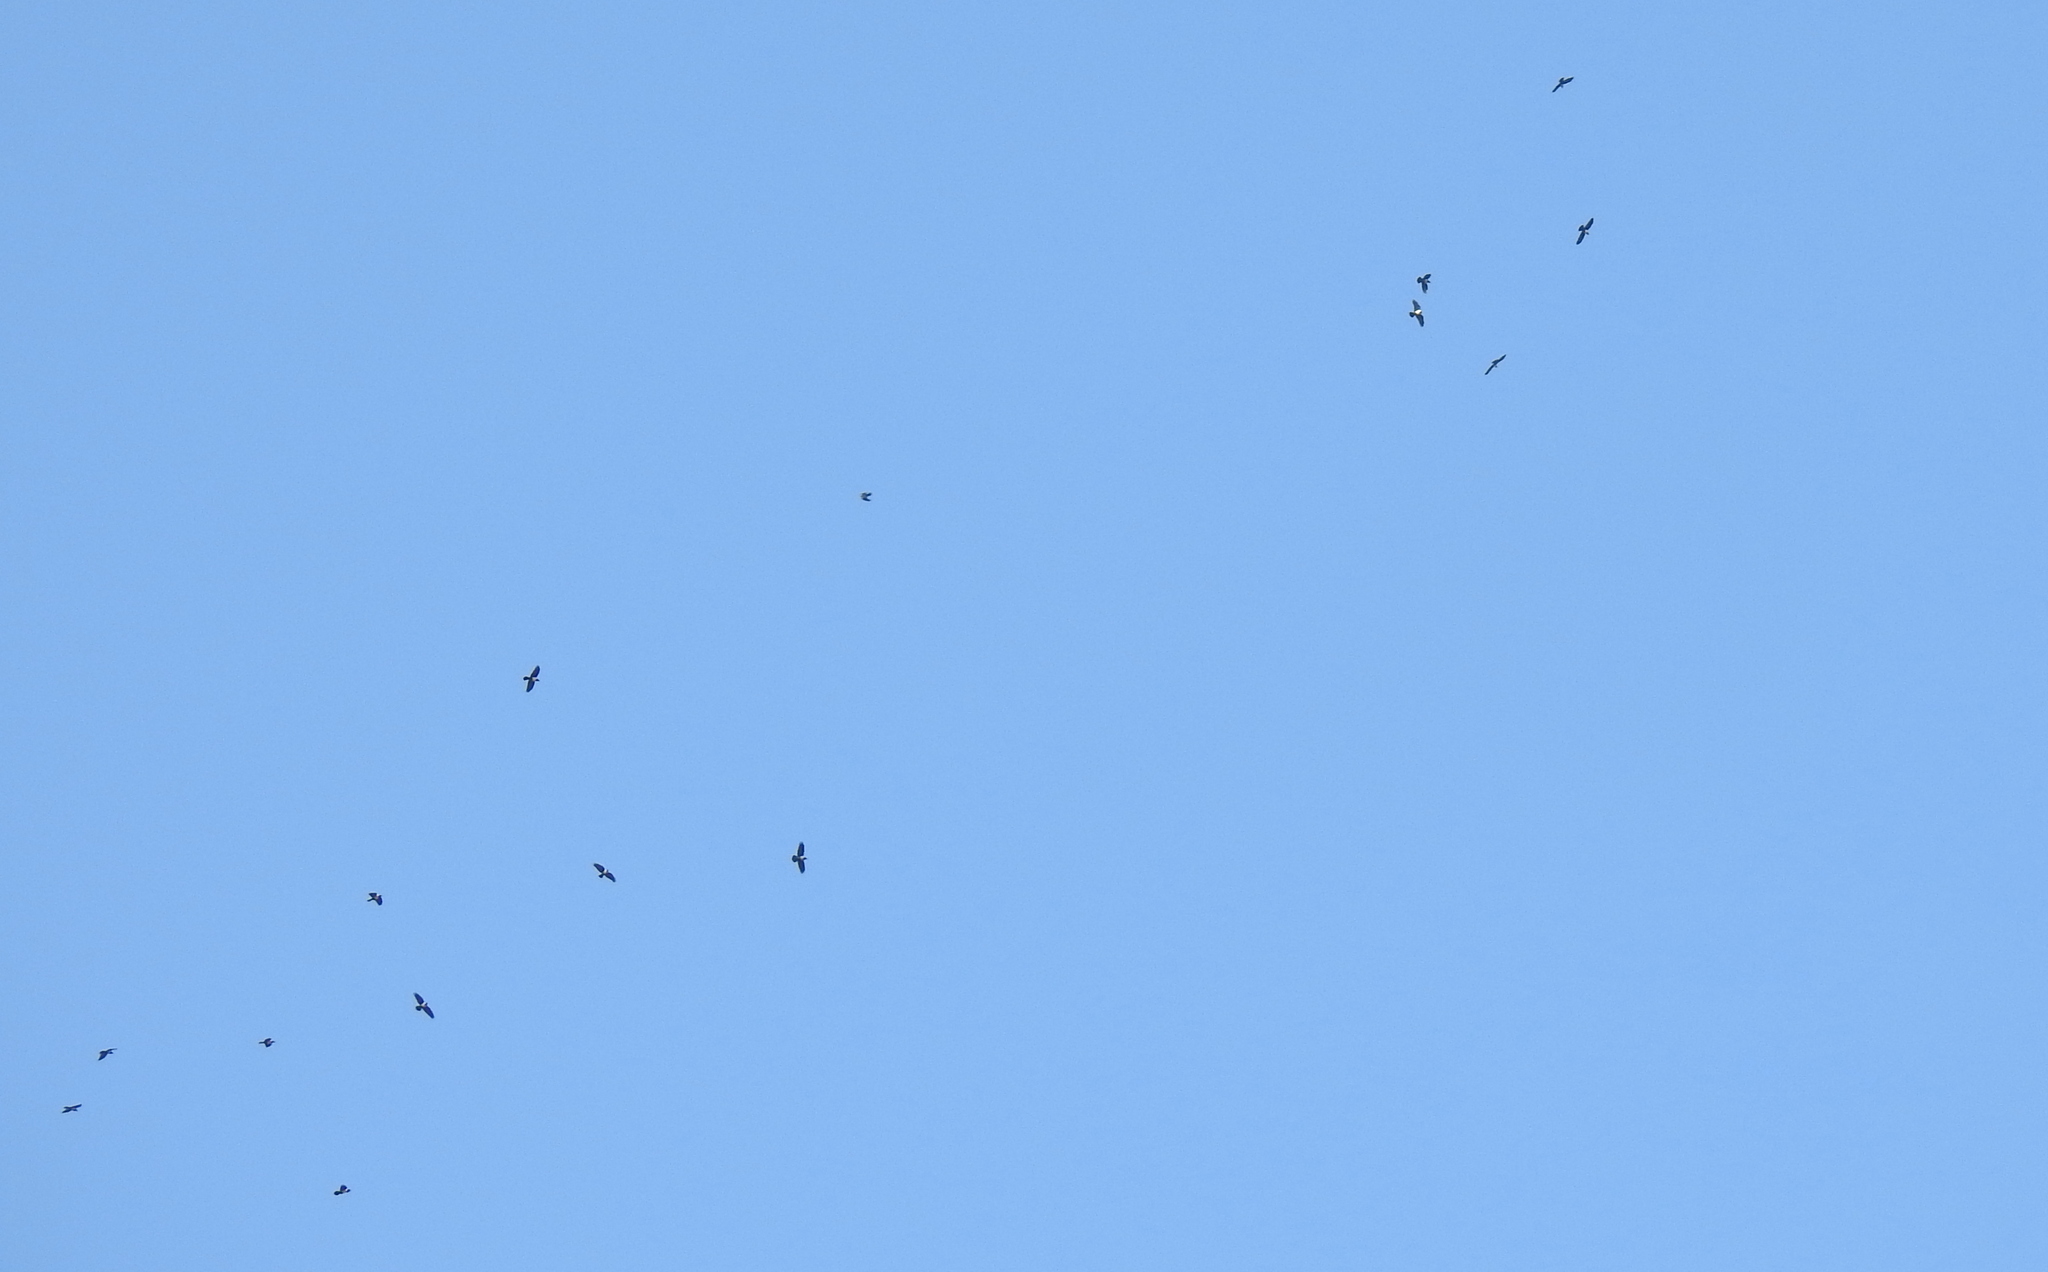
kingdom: Animalia
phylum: Chordata
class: Aves
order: Passeriformes
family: Corvidae
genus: Corvus
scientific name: Corvus albus
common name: Pied crow
